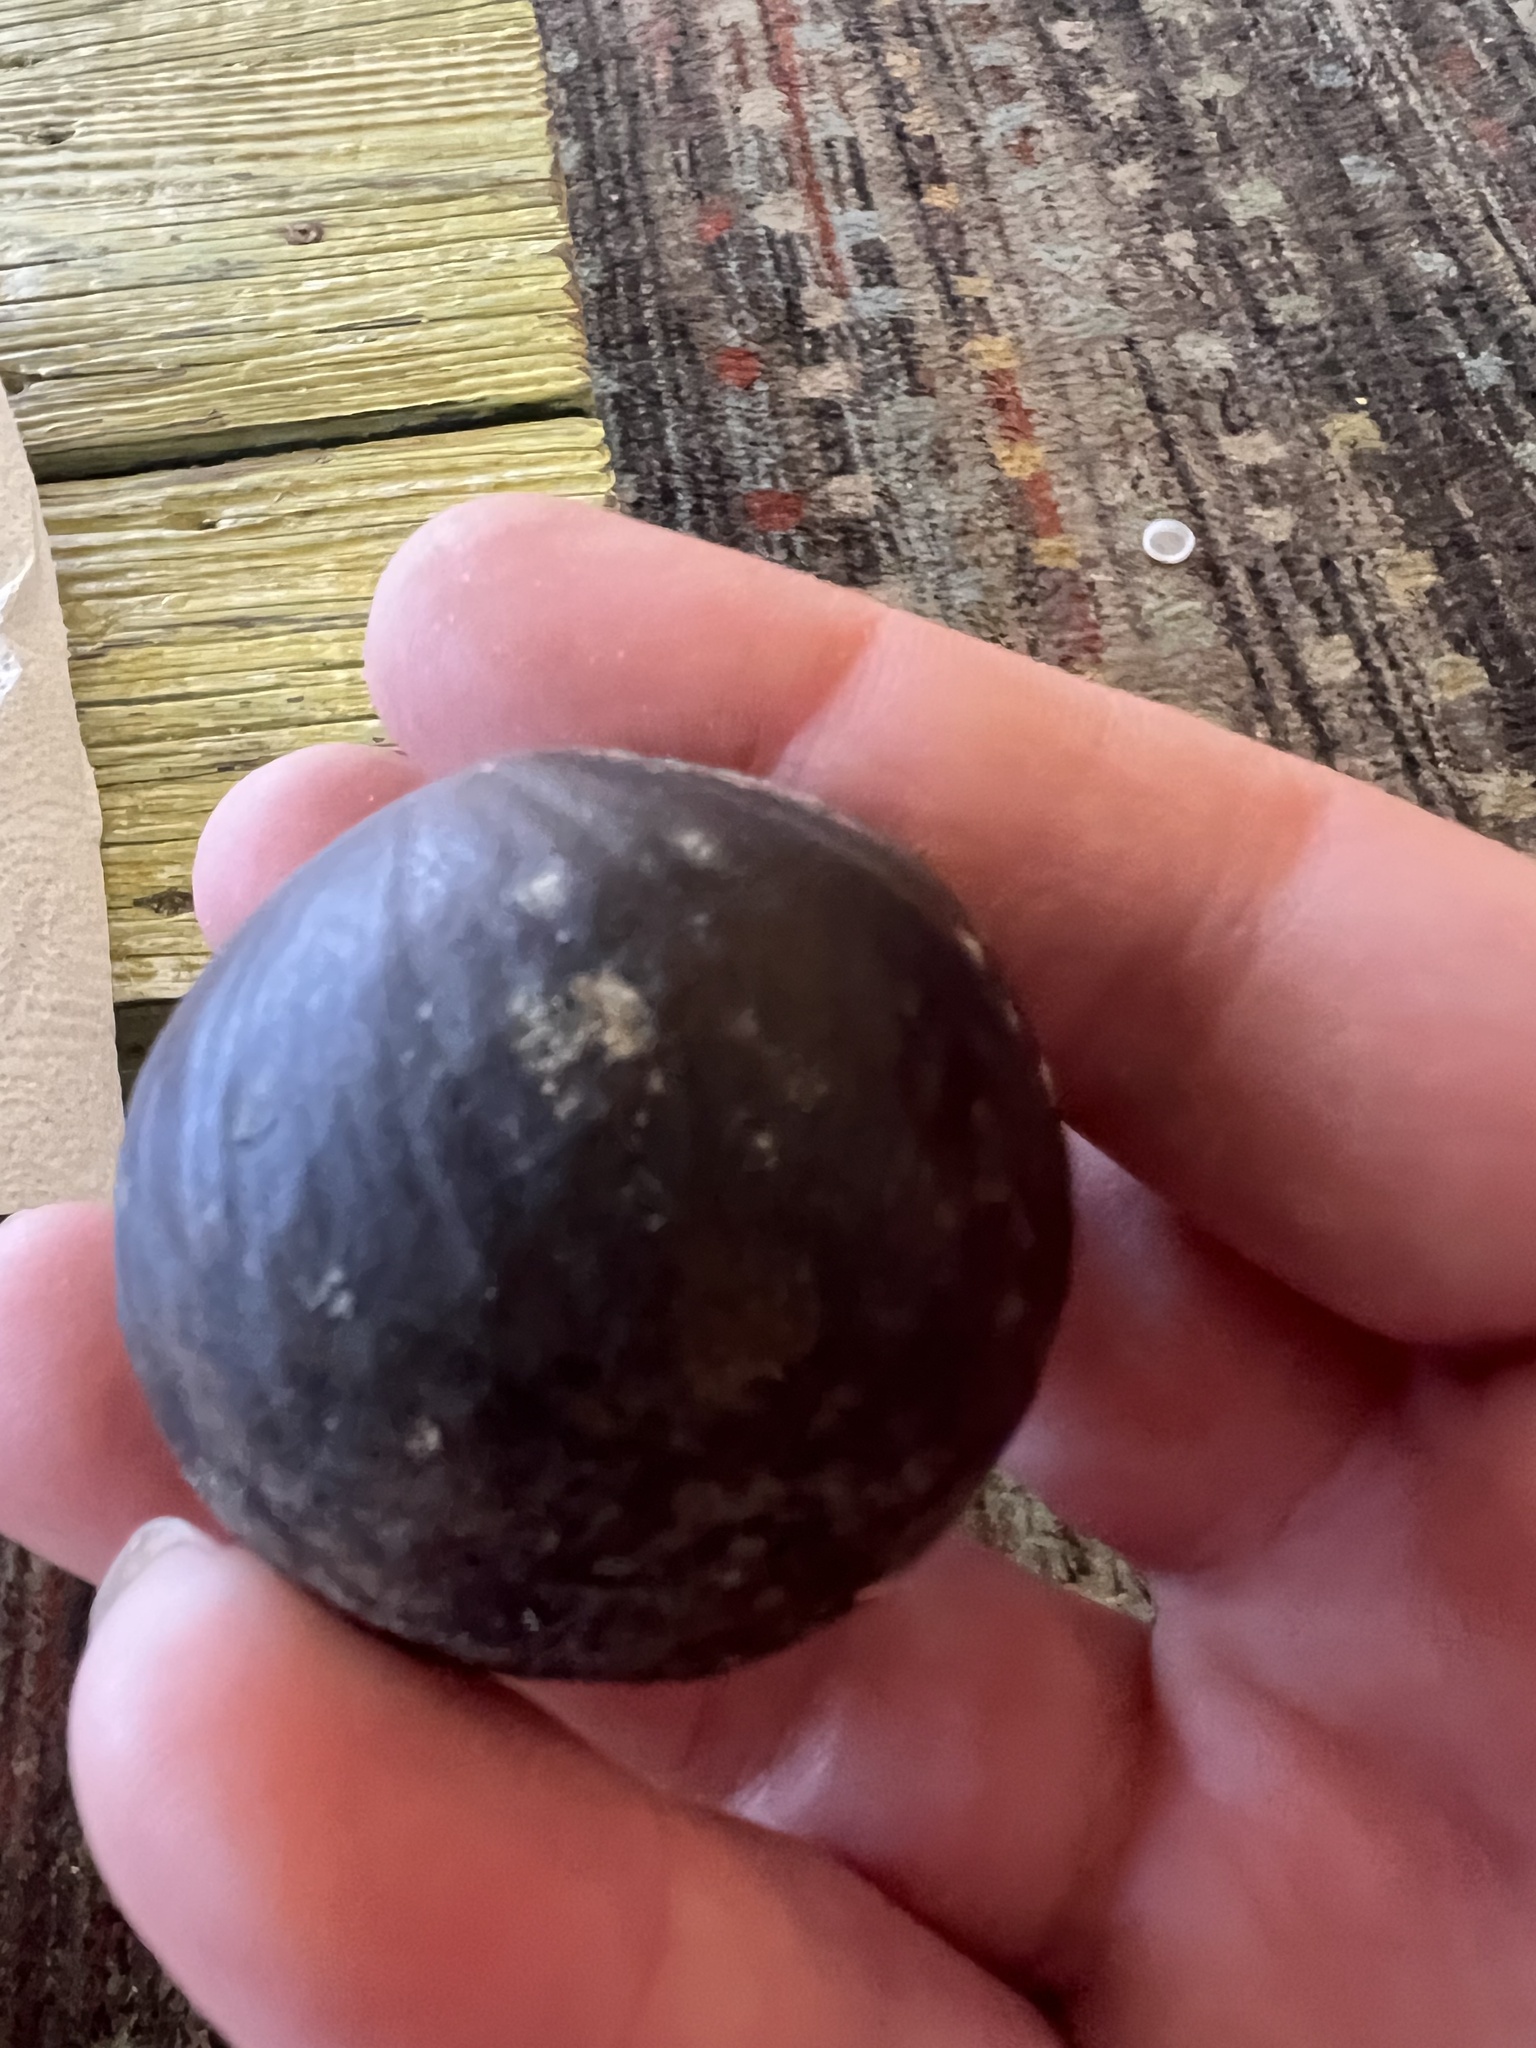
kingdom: Plantae
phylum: Tracheophyta
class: Liliopsida
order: Arecales
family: Arecaceae
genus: Manicaria
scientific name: Manicaria saccifera
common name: Sea coconut
